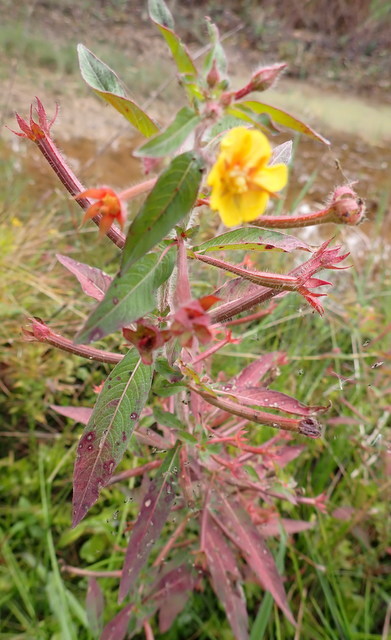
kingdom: Plantae
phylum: Tracheophyta
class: Magnoliopsida
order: Myrtales
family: Onagraceae
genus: Ludwigia
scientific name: Ludwigia leptocarpa
